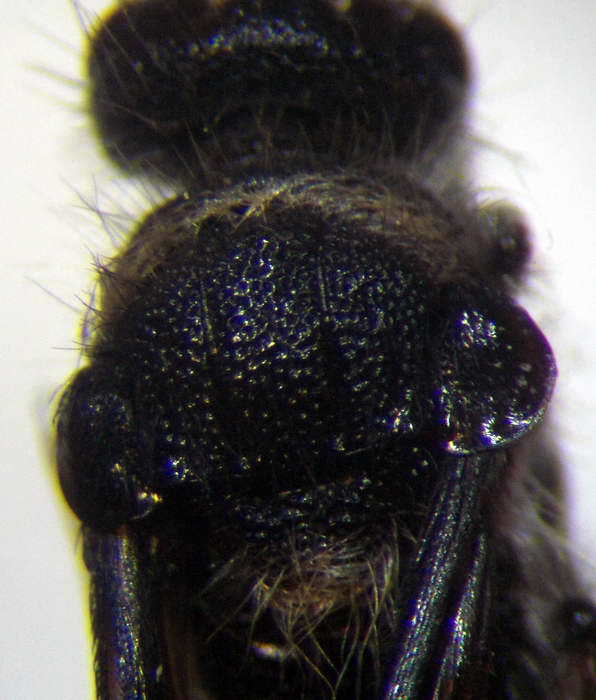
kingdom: Animalia
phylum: Arthropoda
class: Insecta
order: Hymenoptera
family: Mutillidae
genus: Nemka
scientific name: Nemka viduata
